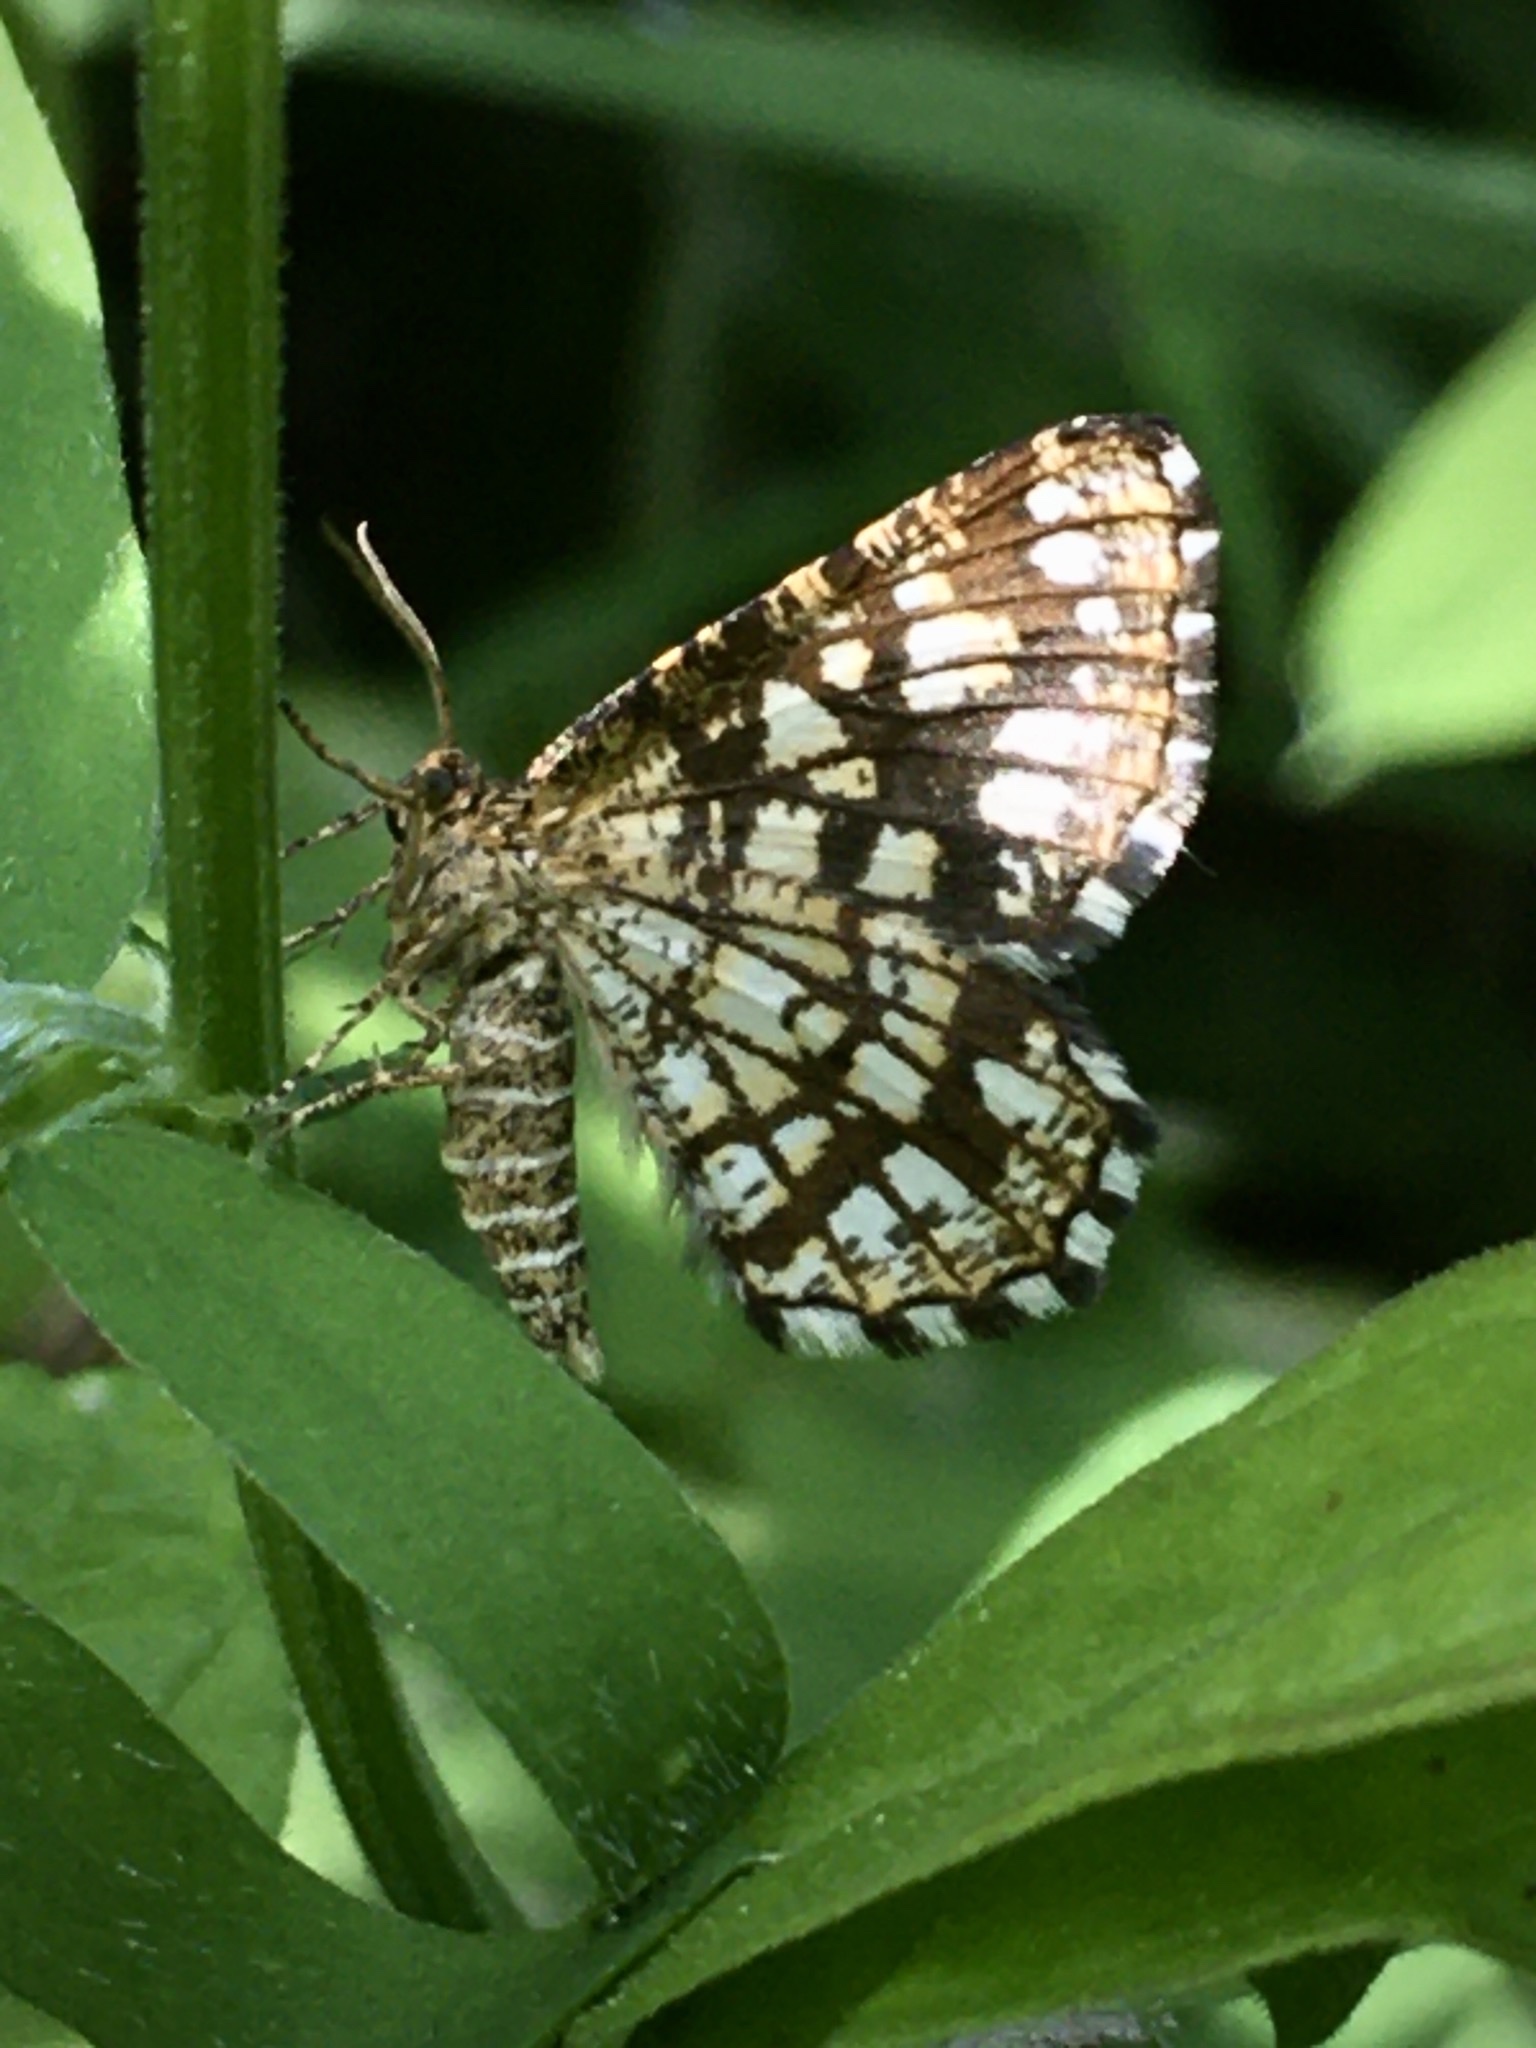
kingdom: Animalia
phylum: Arthropoda
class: Insecta
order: Lepidoptera
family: Geometridae
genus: Chiasmia
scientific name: Chiasmia clathrata
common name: Latticed heath
